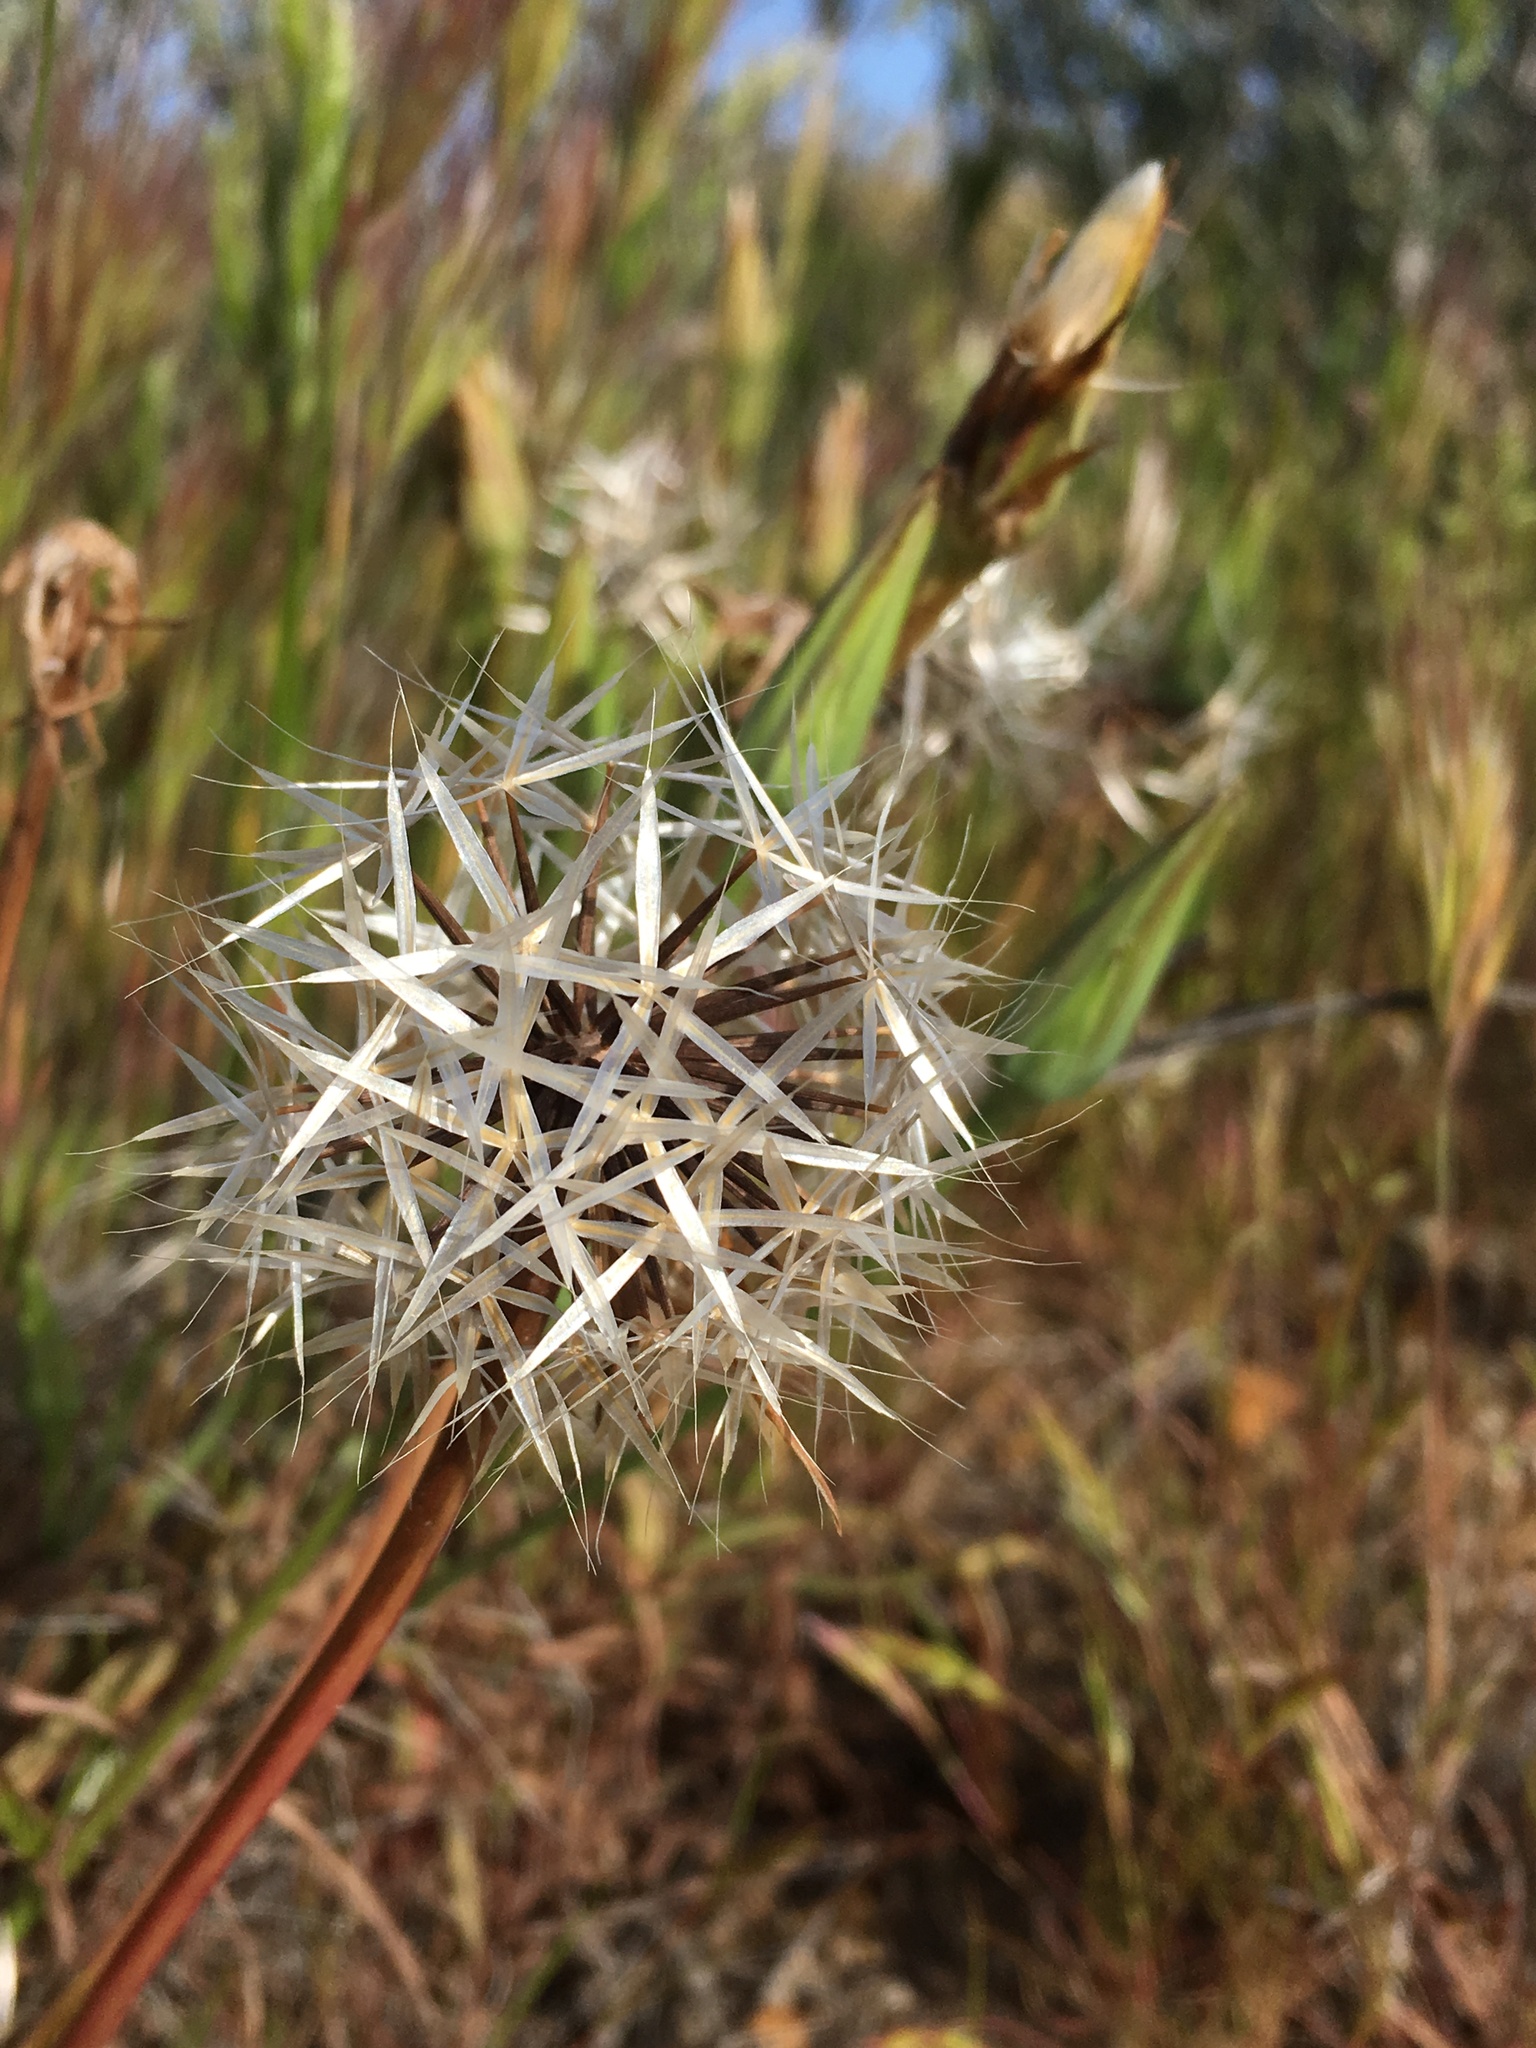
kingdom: Plantae
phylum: Tracheophyta
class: Magnoliopsida
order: Asterales
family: Asteraceae
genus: Microseris
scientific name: Microseris lindleyi
